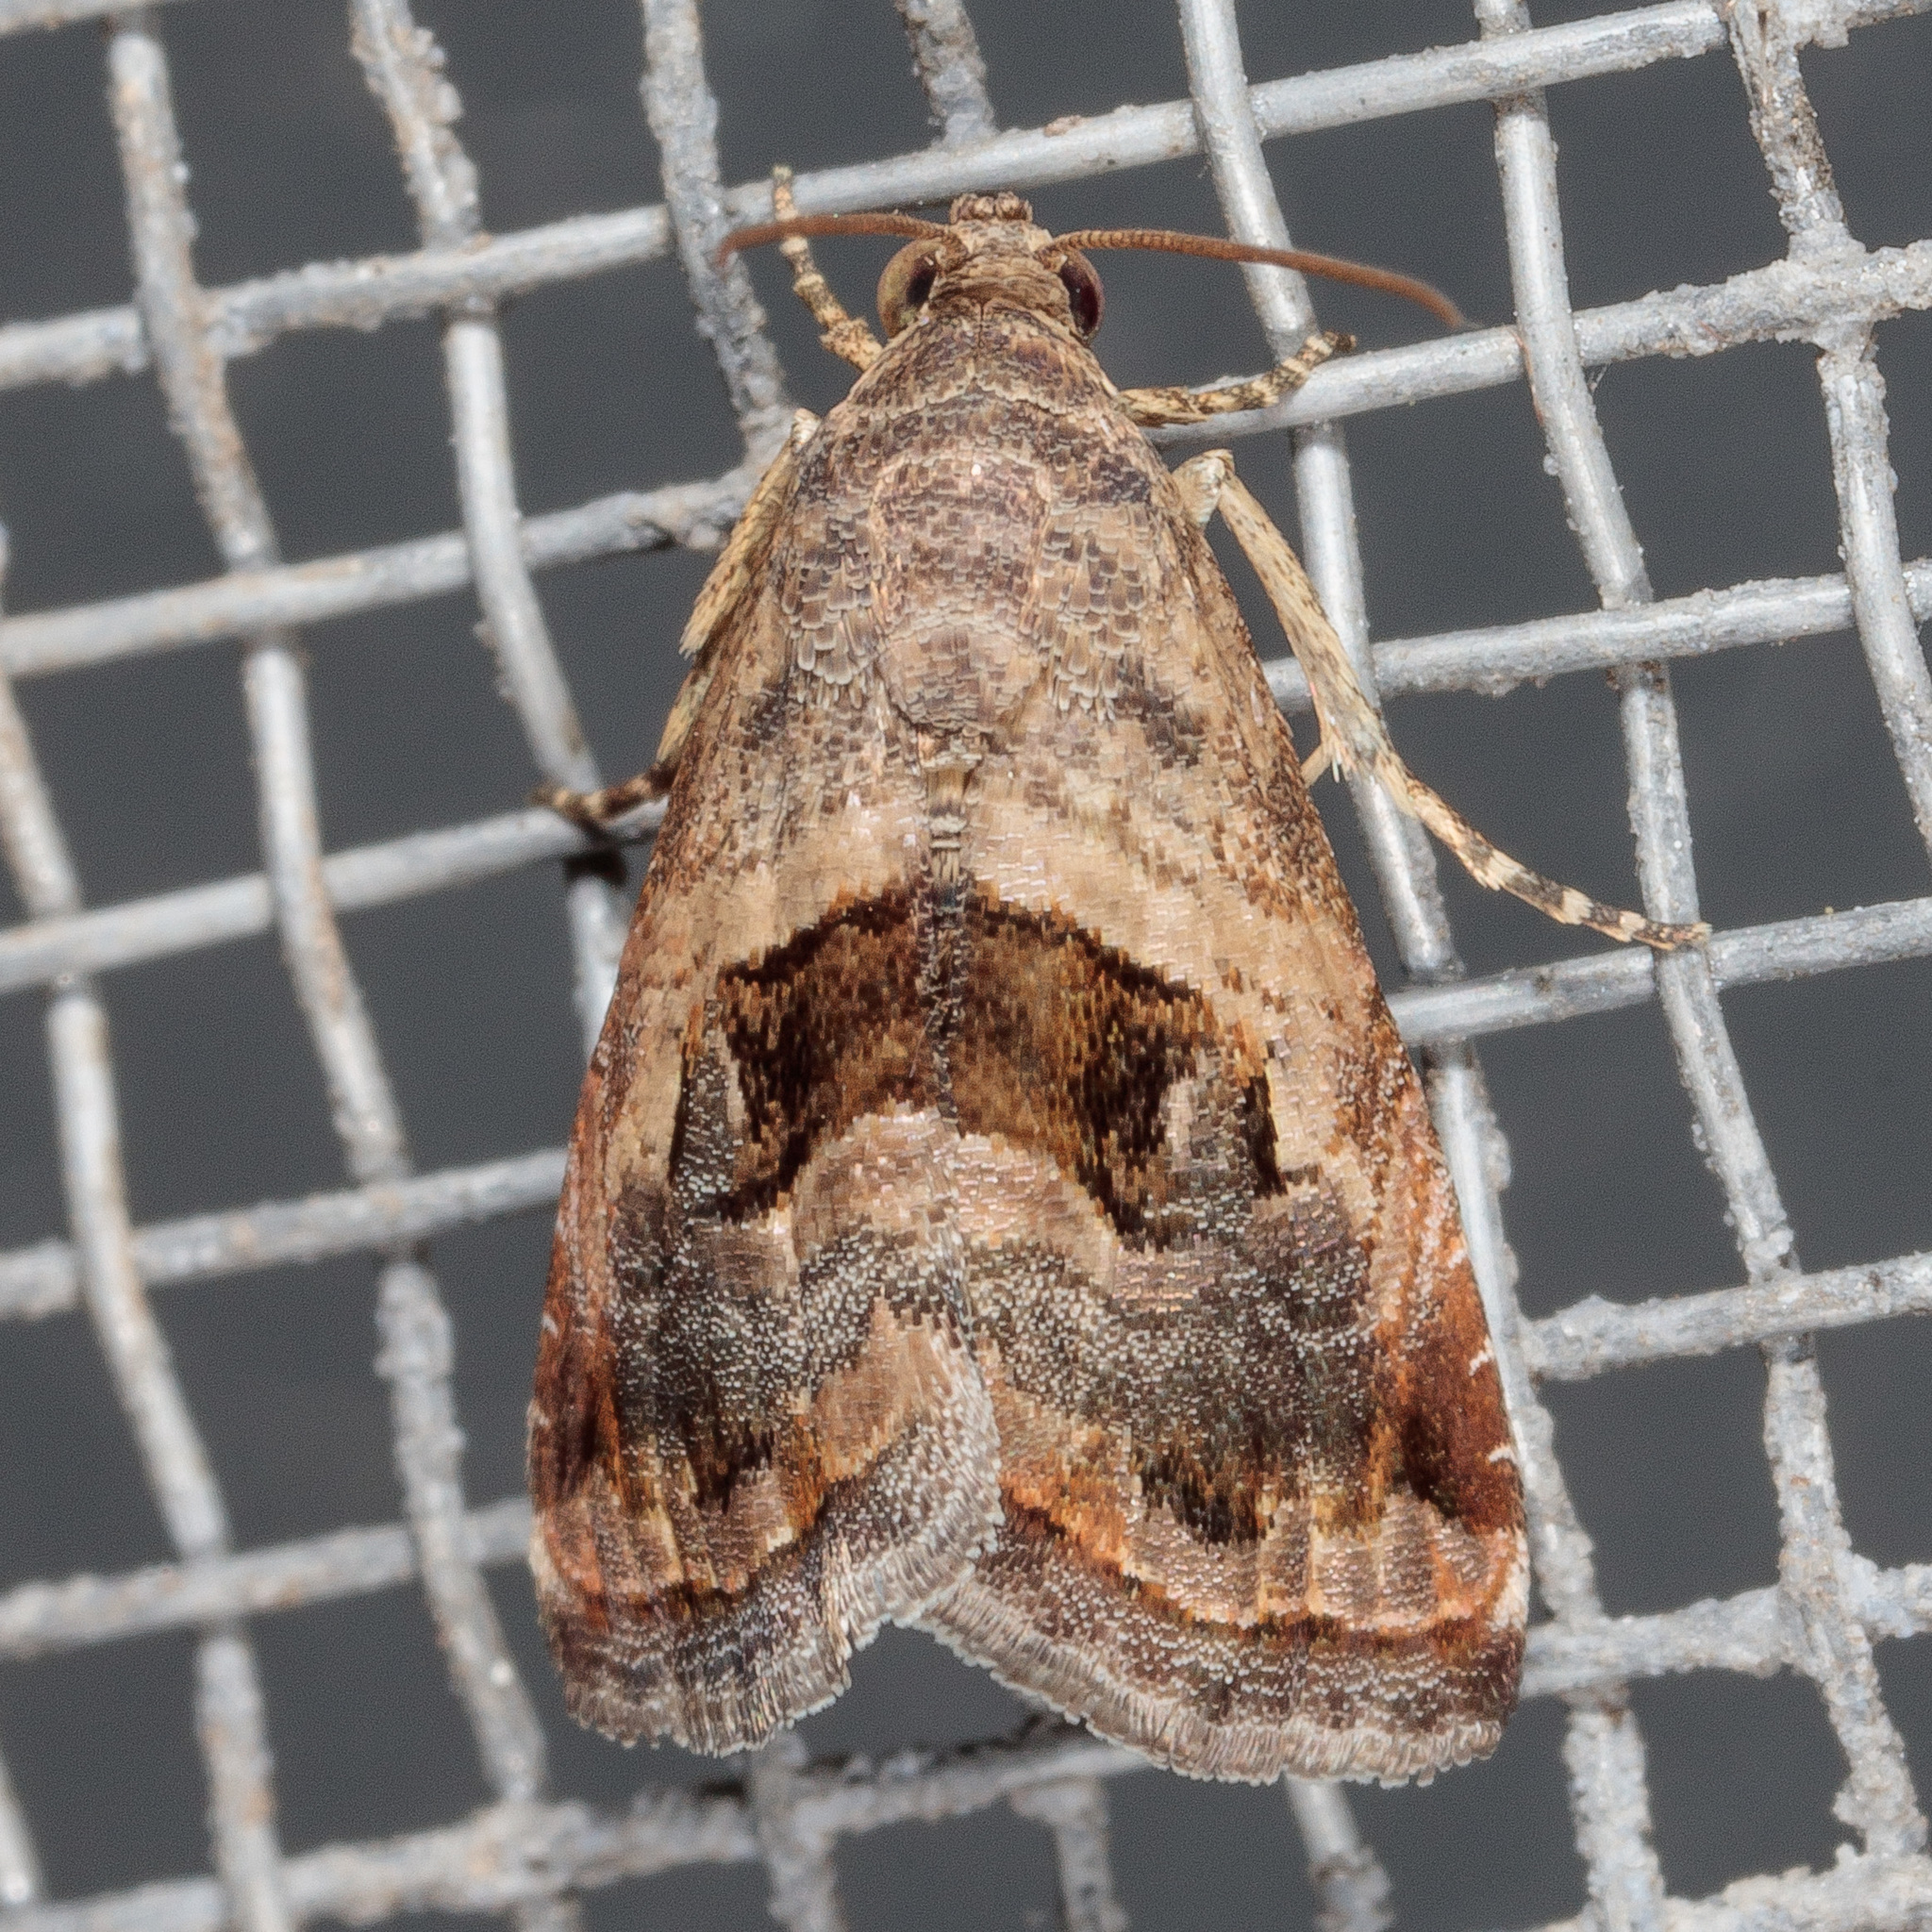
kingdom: Animalia
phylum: Arthropoda
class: Insecta
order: Lepidoptera
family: Noctuidae
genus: Tripudia
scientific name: Tripudia quadrifera
